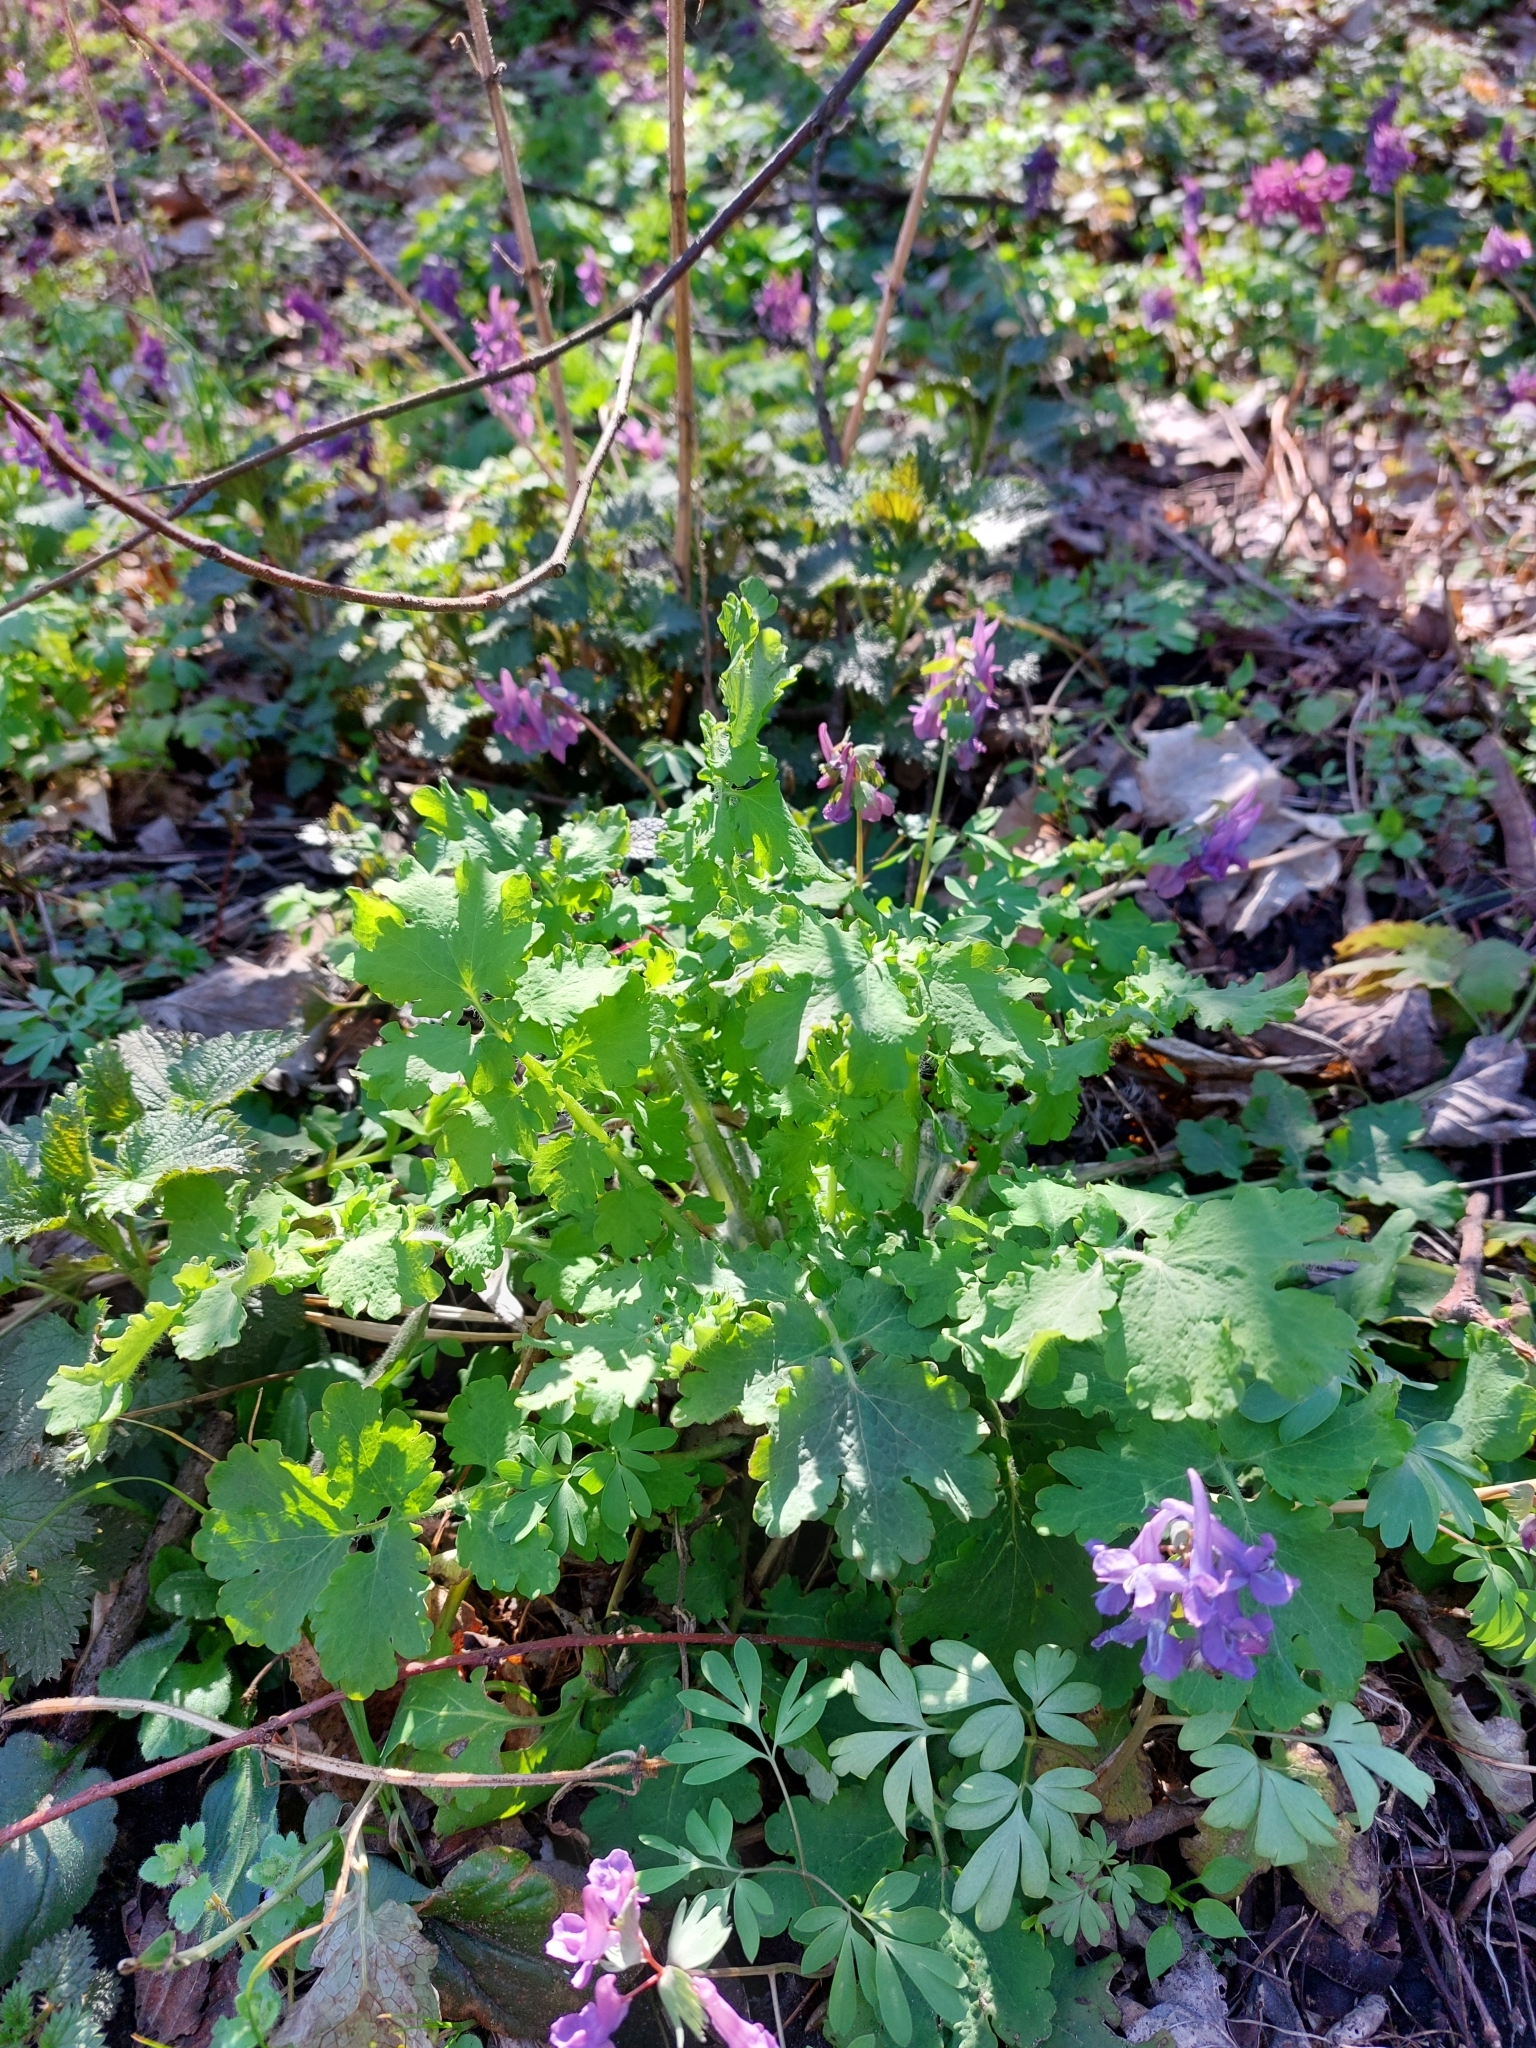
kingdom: Plantae
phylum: Tracheophyta
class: Magnoliopsida
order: Ranunculales
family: Papaveraceae
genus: Chelidonium
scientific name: Chelidonium majus
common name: Greater celandine
